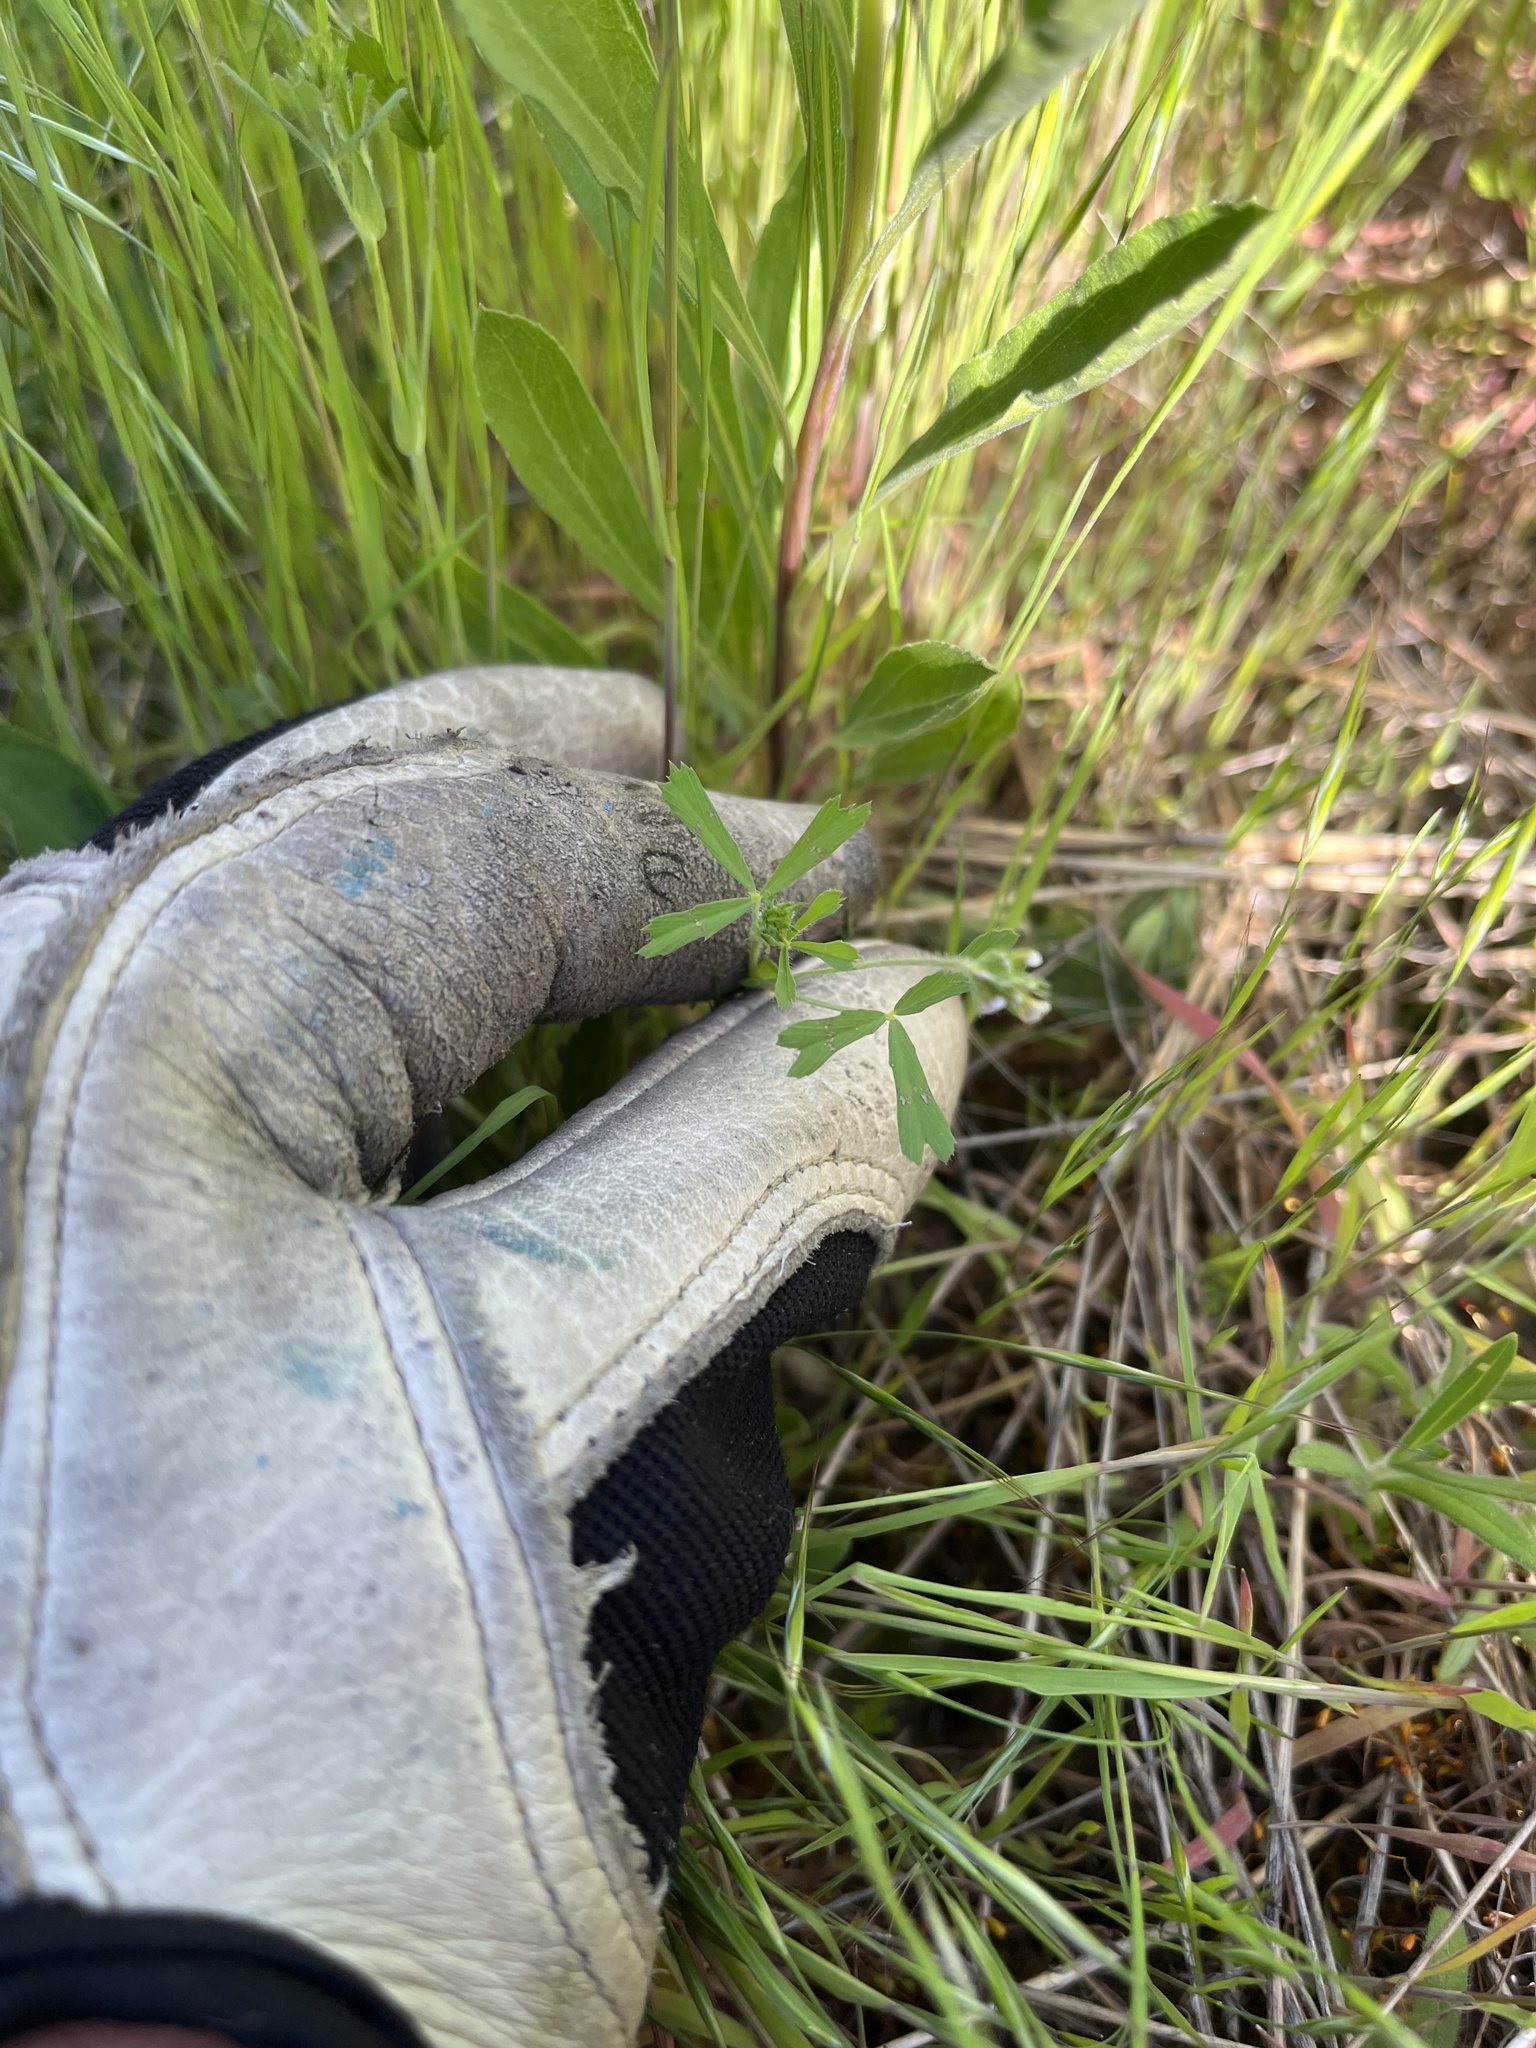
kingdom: Plantae
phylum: Tracheophyta
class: Magnoliopsida
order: Fabales
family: Fabaceae
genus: Trifolium
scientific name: Trifolium bifidum
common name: Notch-leaf clover
